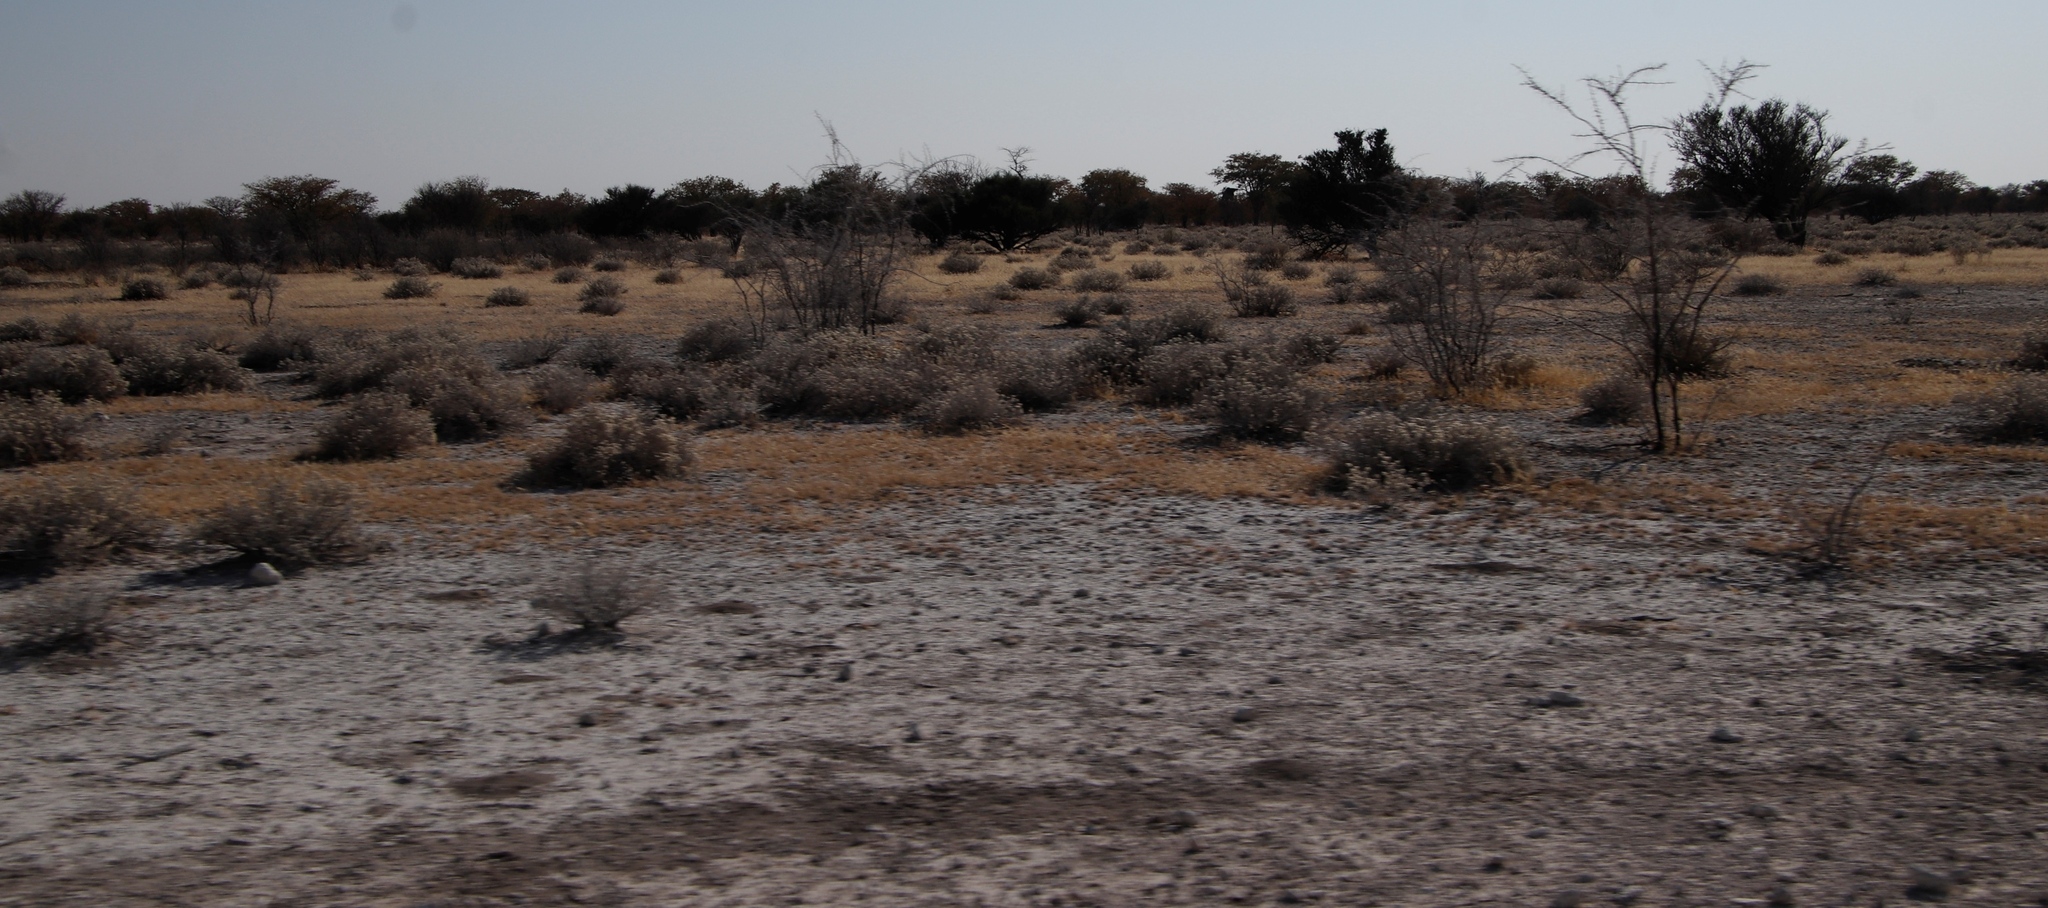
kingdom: Plantae
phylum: Tracheophyta
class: Magnoliopsida
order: Brassicales
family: Capparaceae
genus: Boscia
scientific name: Boscia albitrunca
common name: Caper bush
